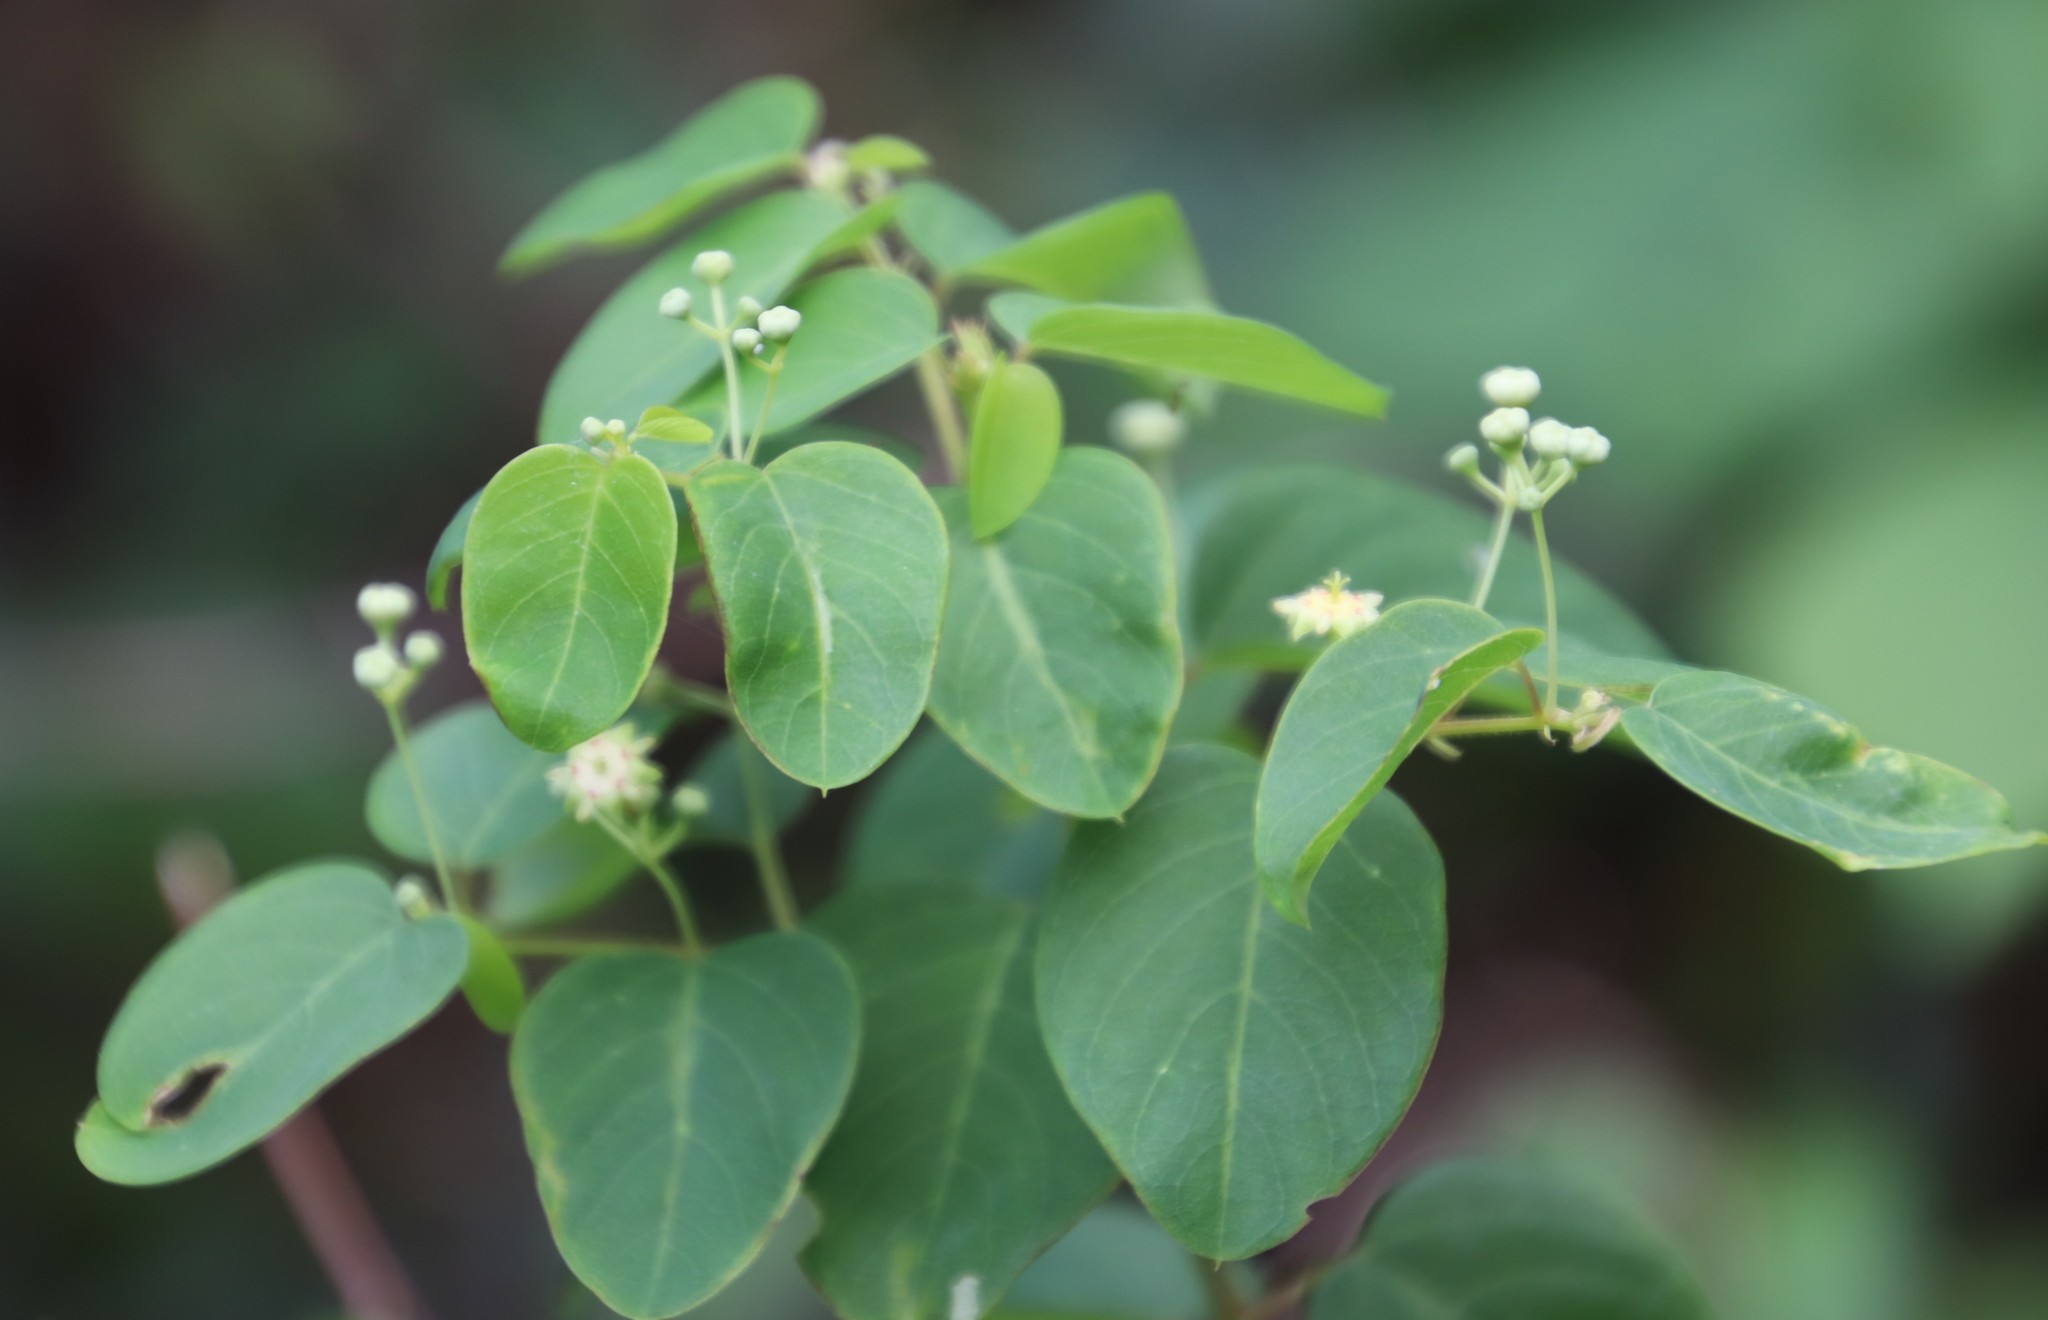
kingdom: Plantae
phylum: Tracheophyta
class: Magnoliopsida
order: Rosales
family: Rhamnaceae
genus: Helinus
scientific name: Helinus integrifolius
